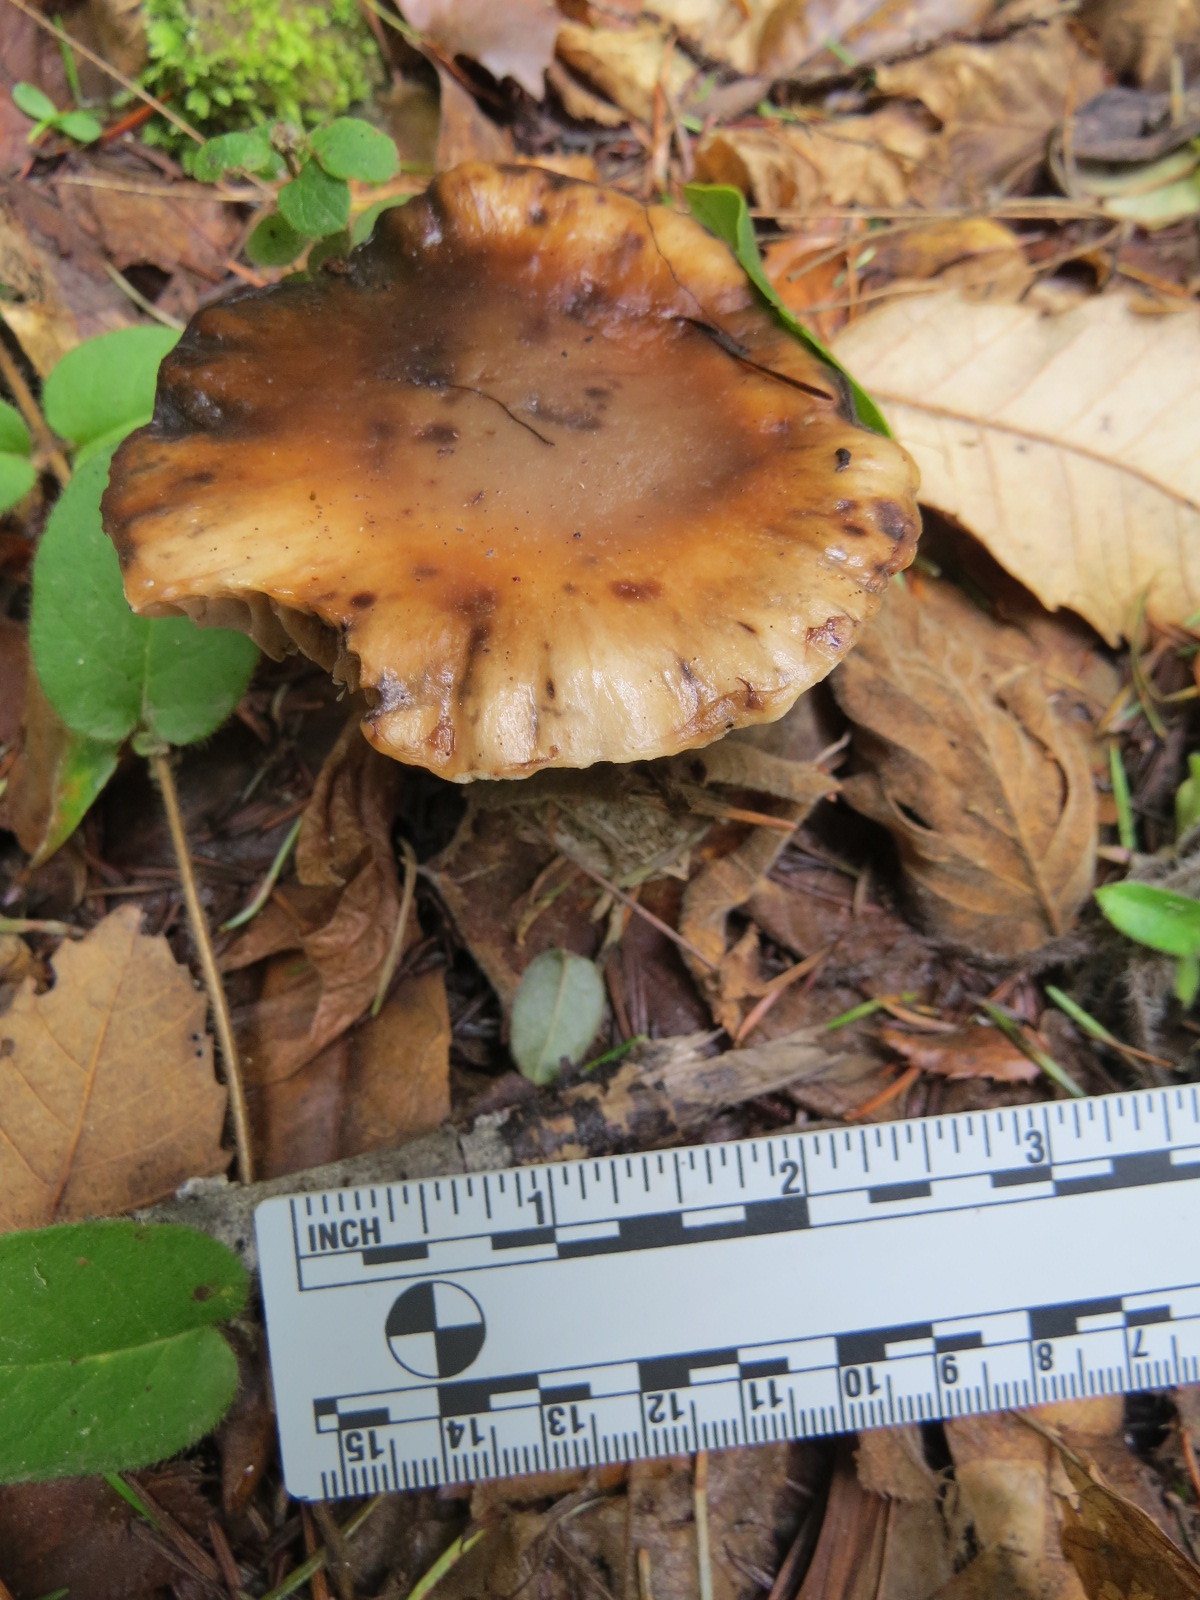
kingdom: Fungi
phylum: Basidiomycota
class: Agaricomycetes
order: Boletales
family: Gomphidiaceae
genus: Gomphidius
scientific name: Gomphidius oregonensis
